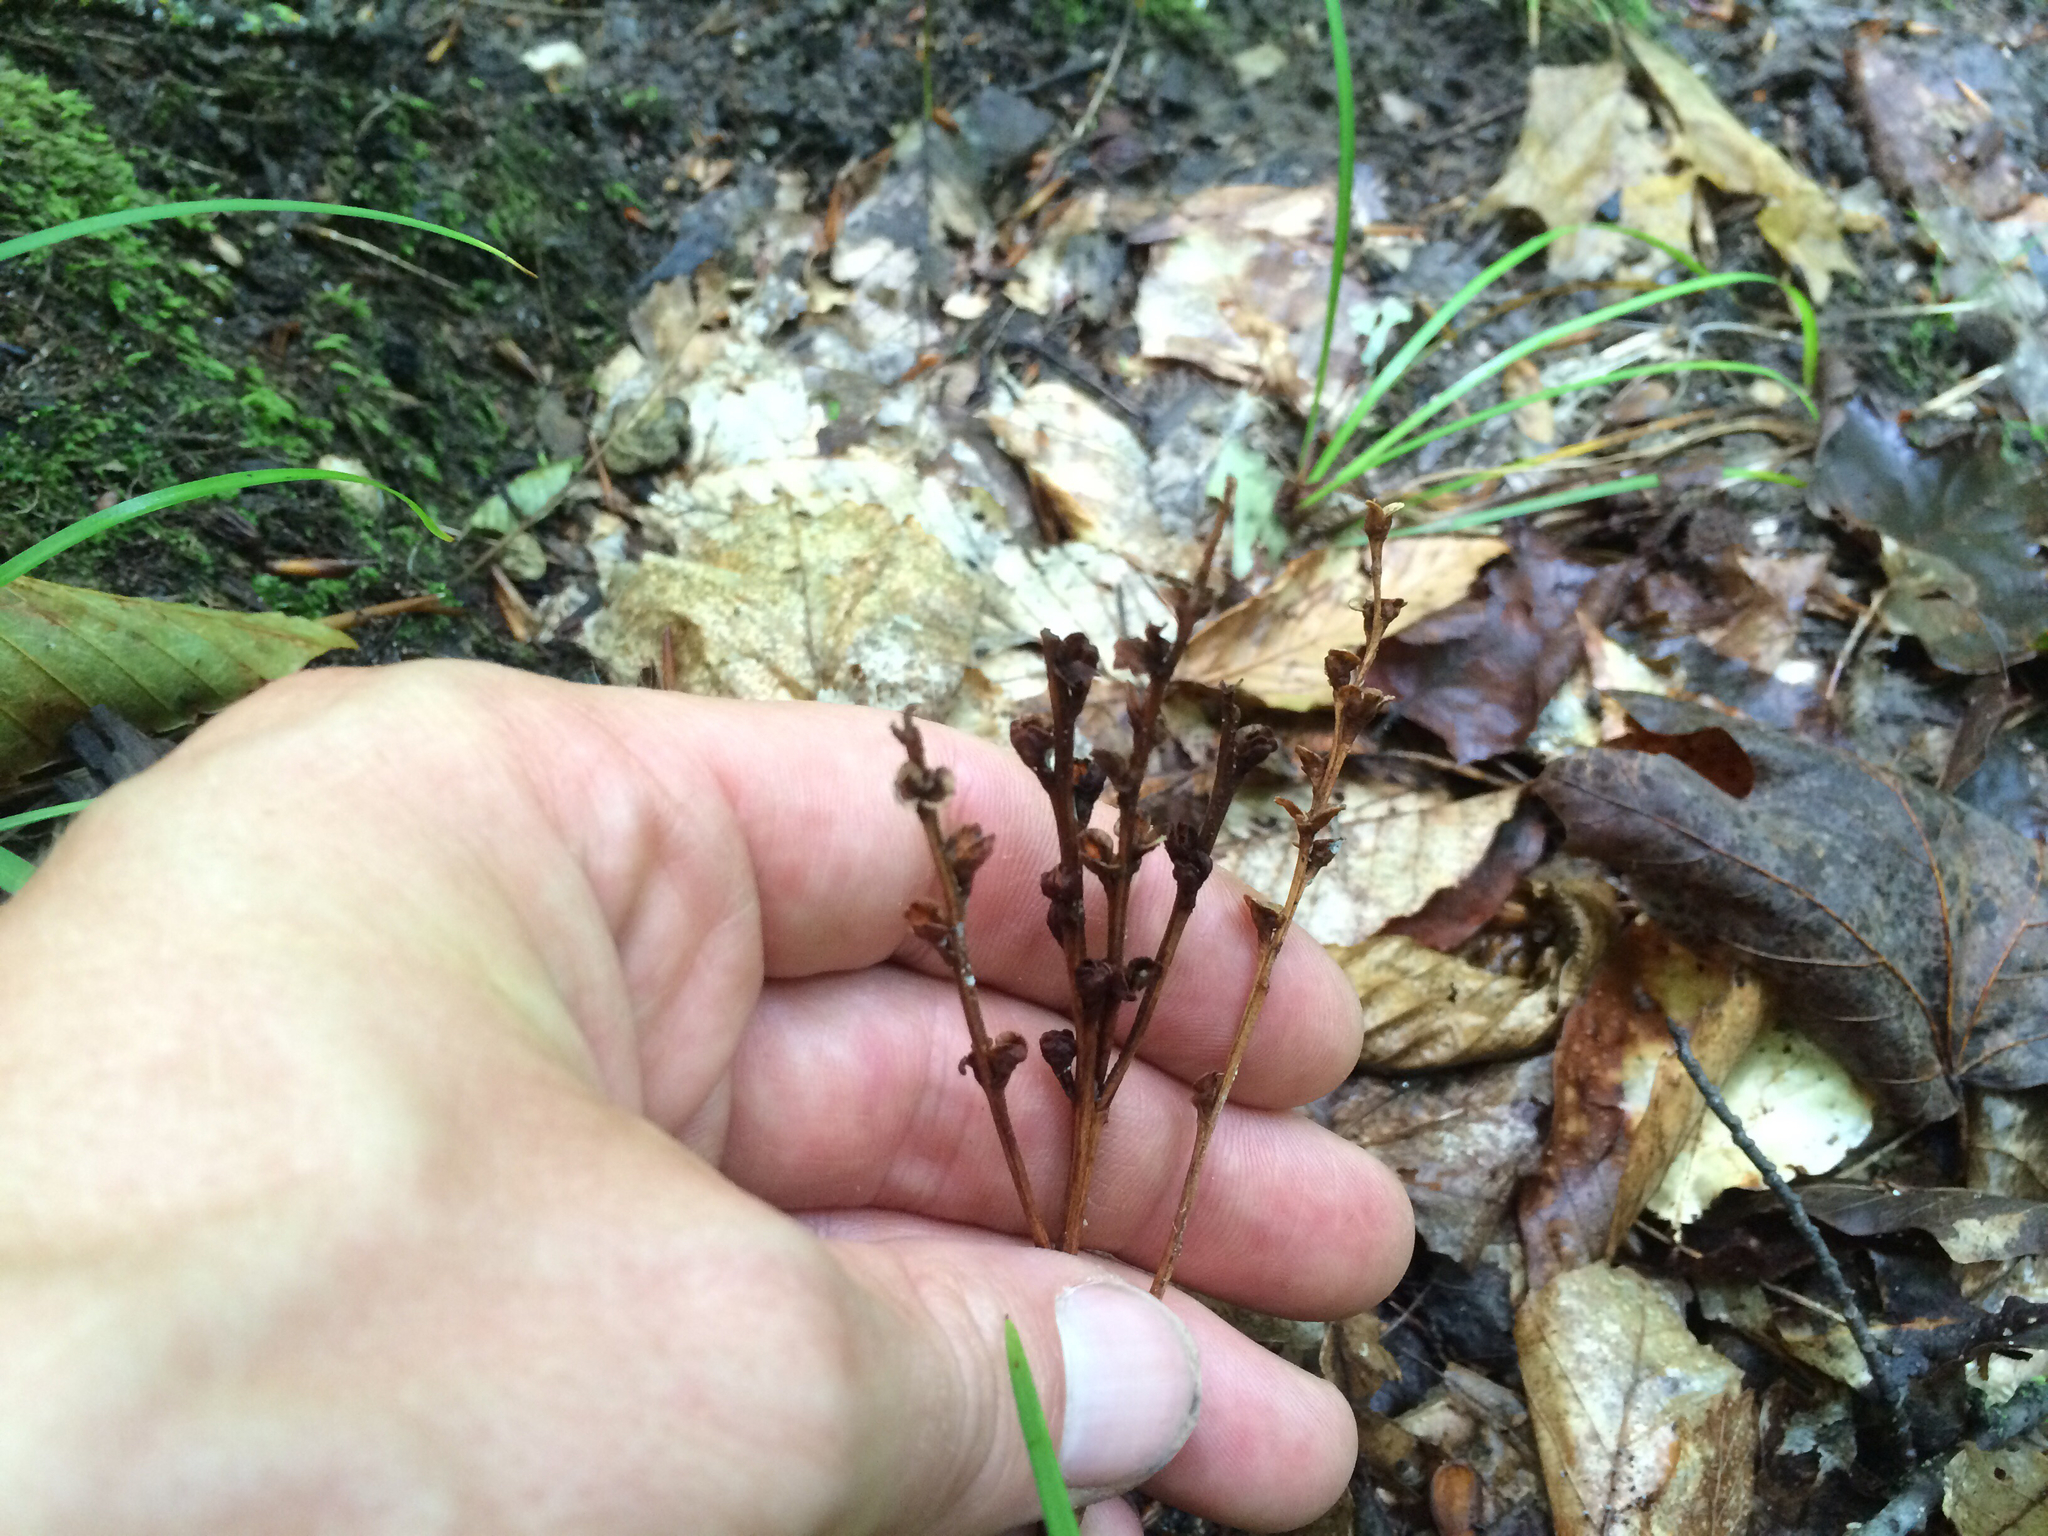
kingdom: Plantae
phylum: Tracheophyta
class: Magnoliopsida
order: Lamiales
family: Orobanchaceae
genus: Epifagus
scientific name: Epifagus virginiana
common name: Beechdrops
